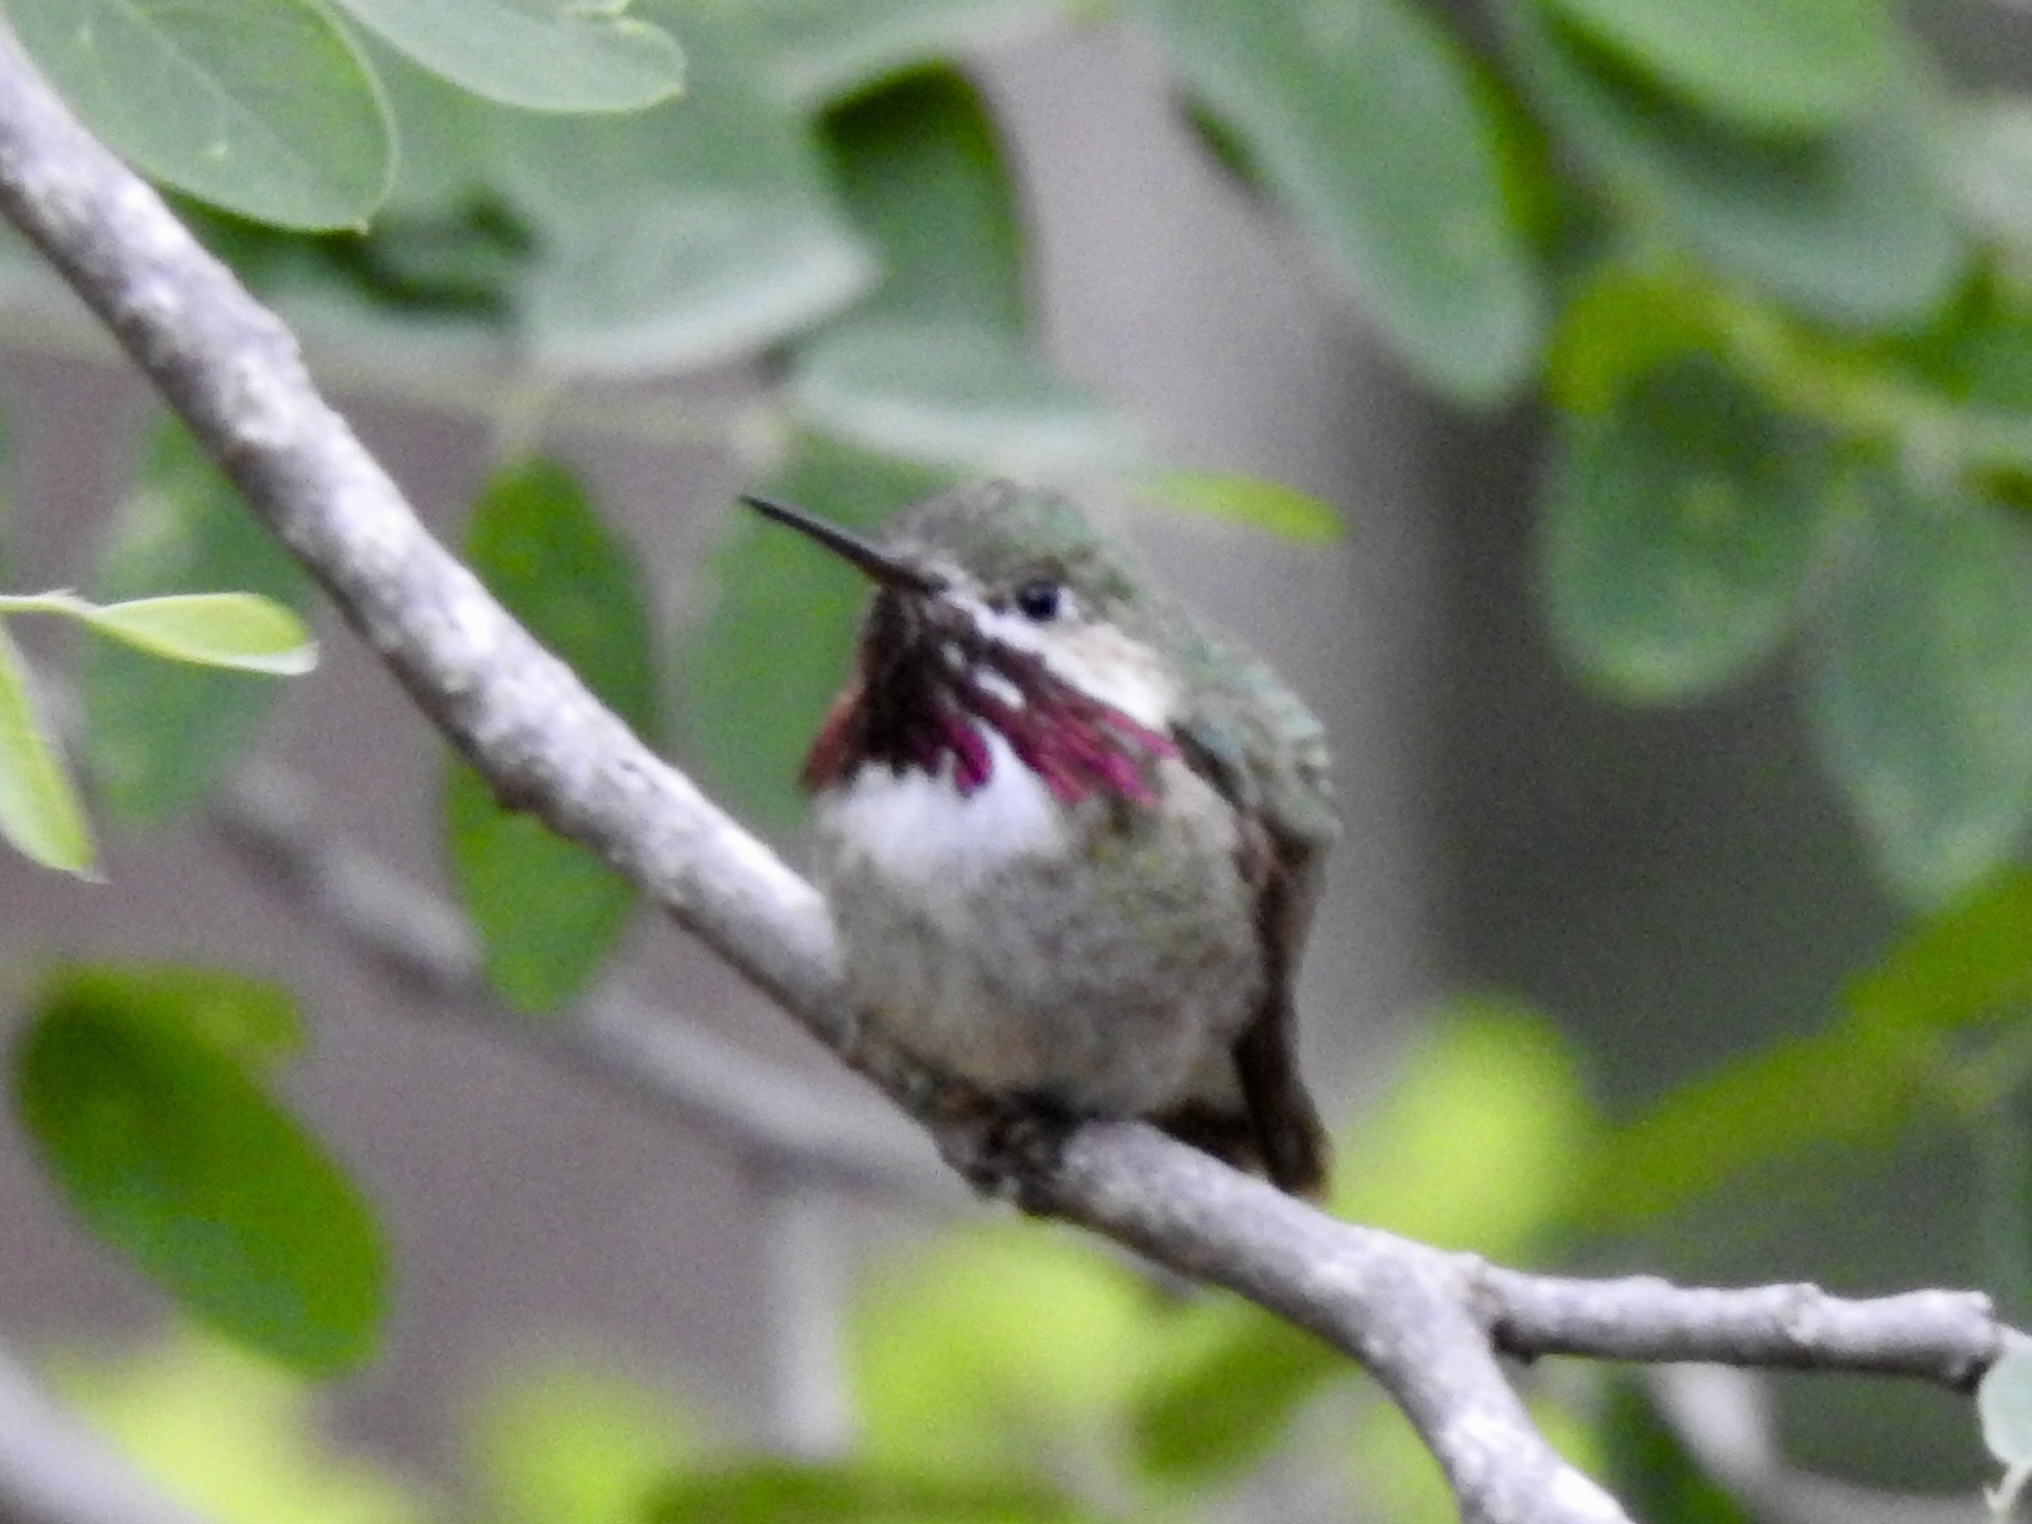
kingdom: Animalia
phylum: Chordata
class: Aves
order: Apodiformes
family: Trochilidae
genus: Selasphorus
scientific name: Selasphorus calliope
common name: Calliope hummingbird
